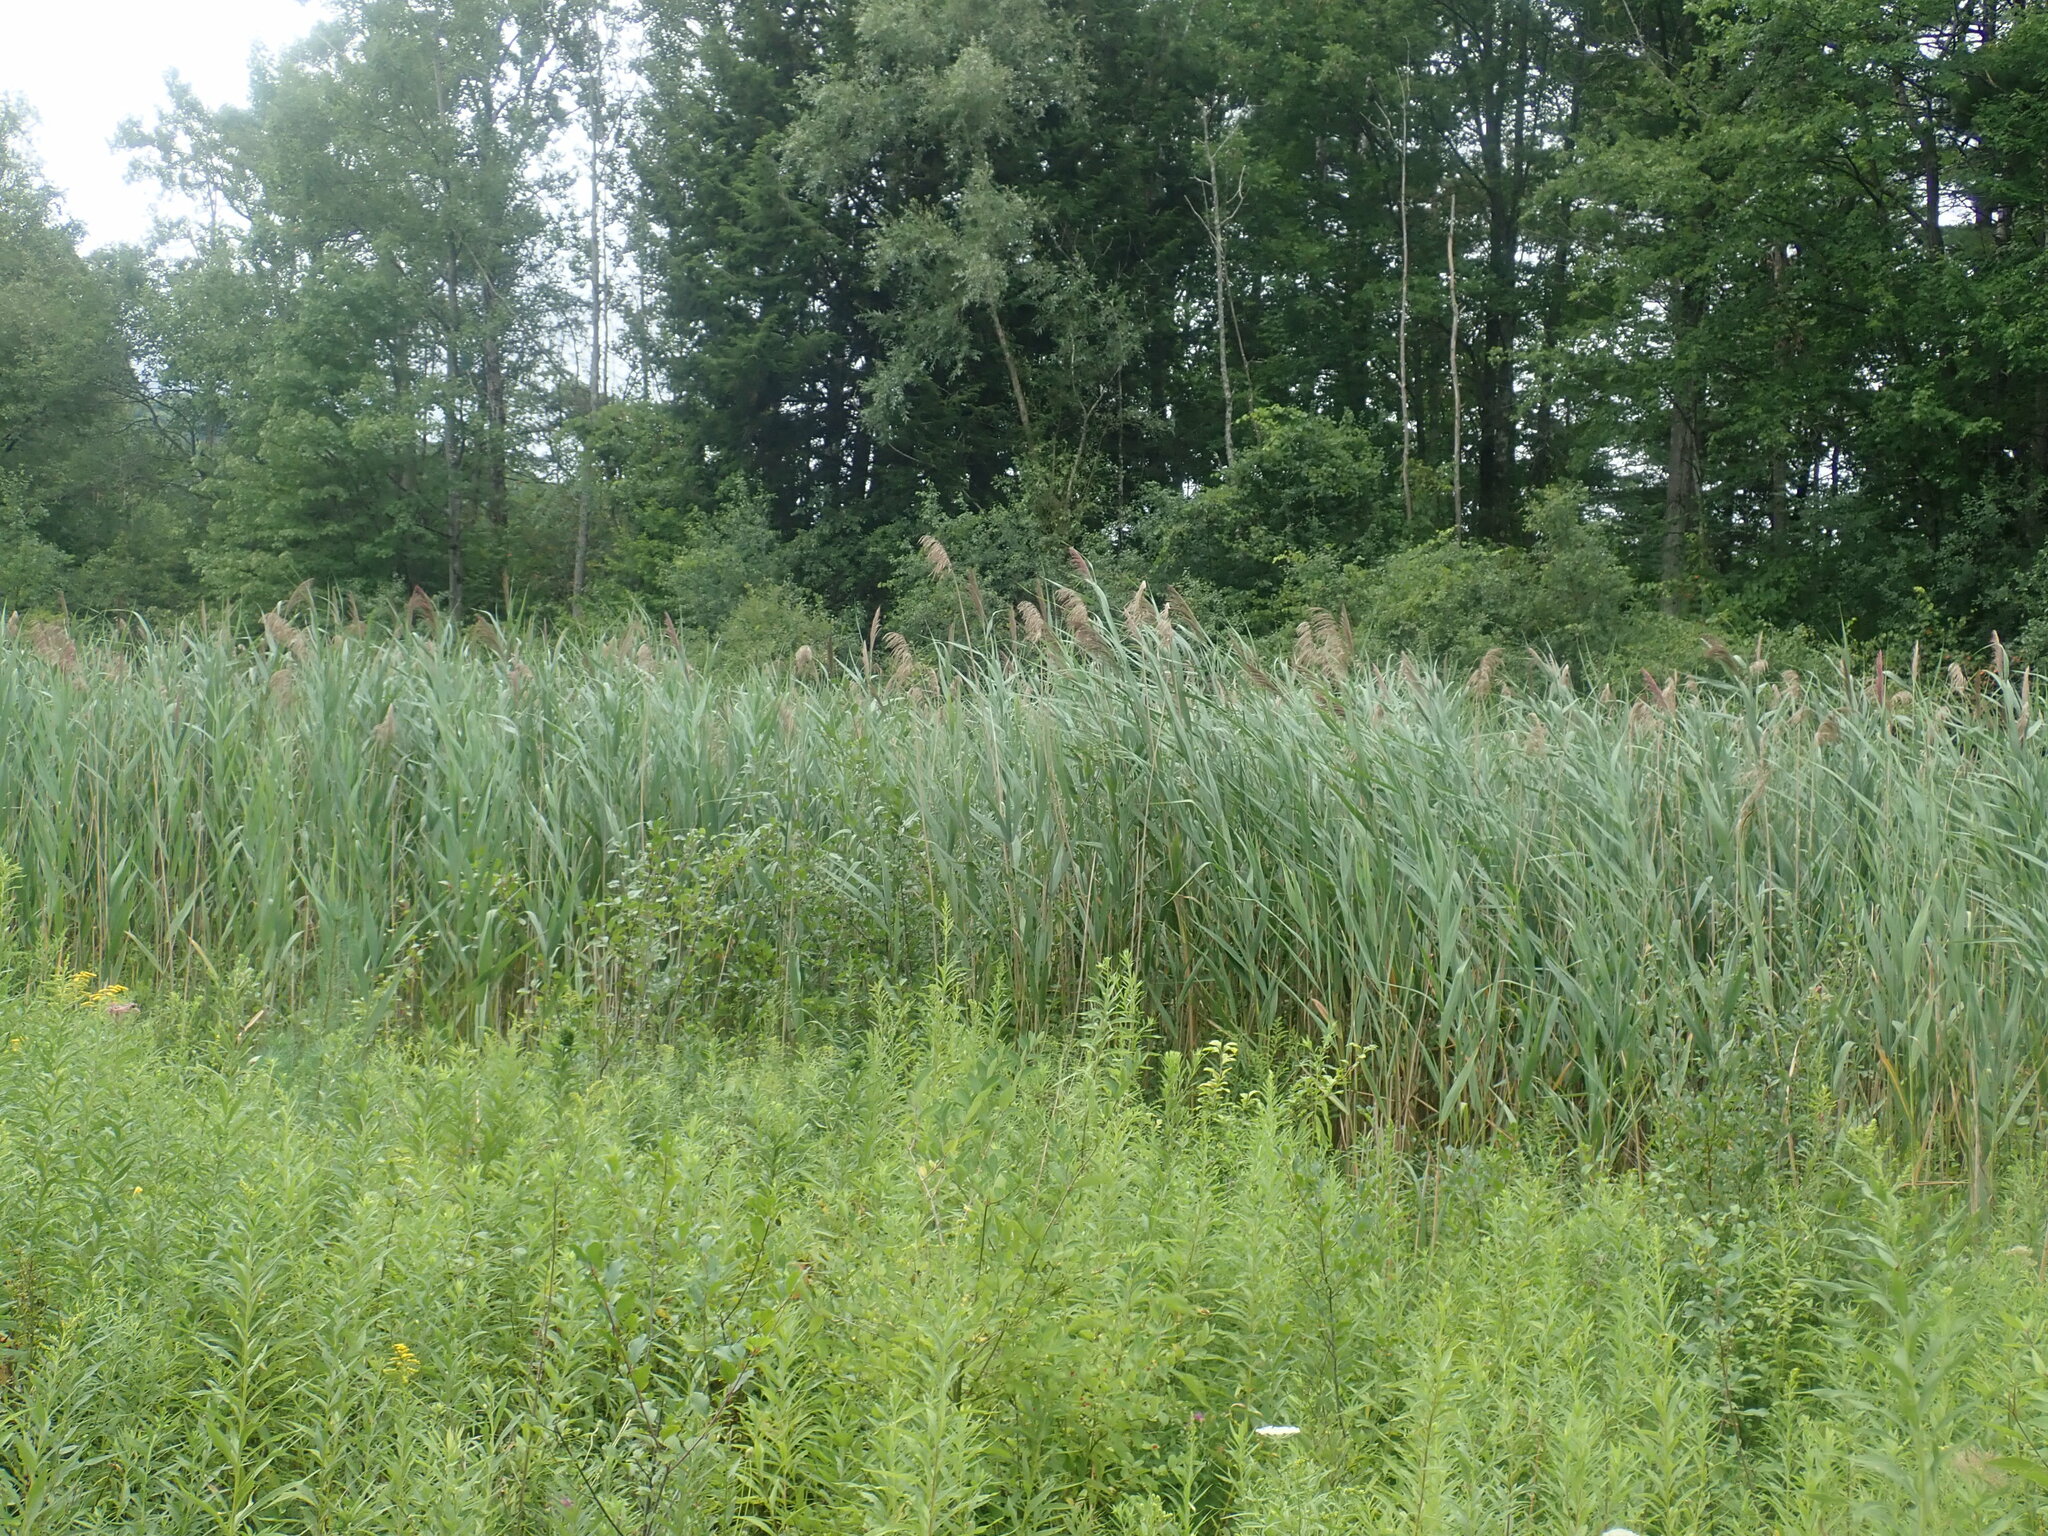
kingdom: Plantae
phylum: Tracheophyta
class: Liliopsida
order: Poales
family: Poaceae
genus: Phragmites
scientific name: Phragmites australis
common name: Common reed
